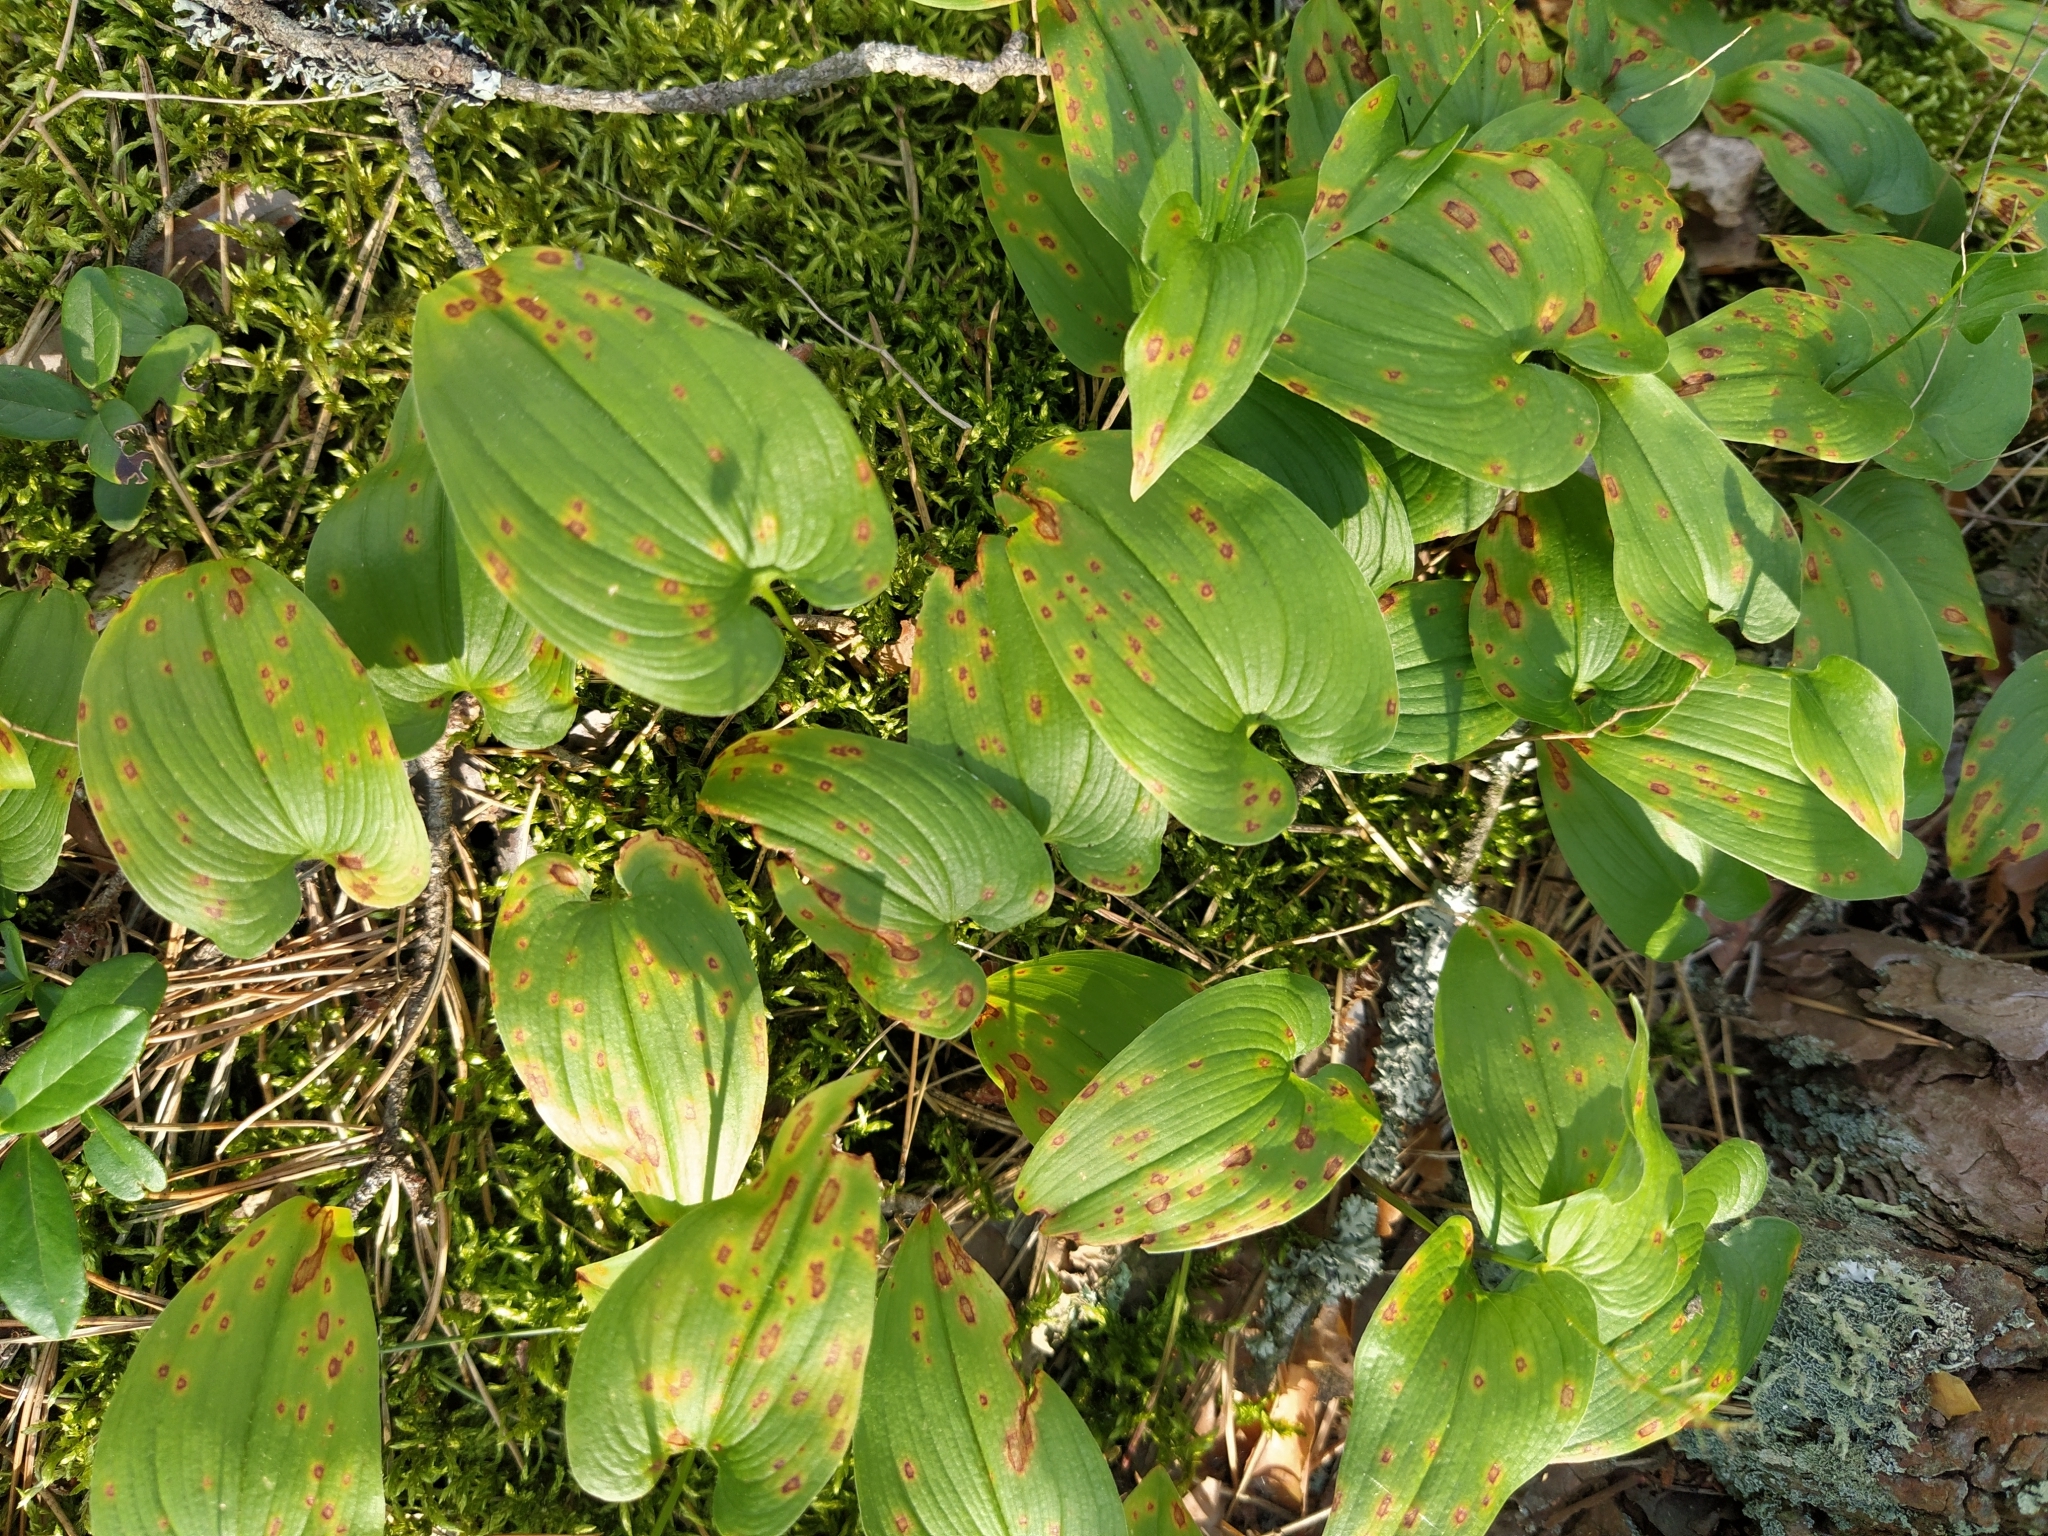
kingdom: Plantae
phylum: Tracheophyta
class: Liliopsida
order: Asparagales
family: Asparagaceae
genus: Maianthemum
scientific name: Maianthemum bifolium
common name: May lily
